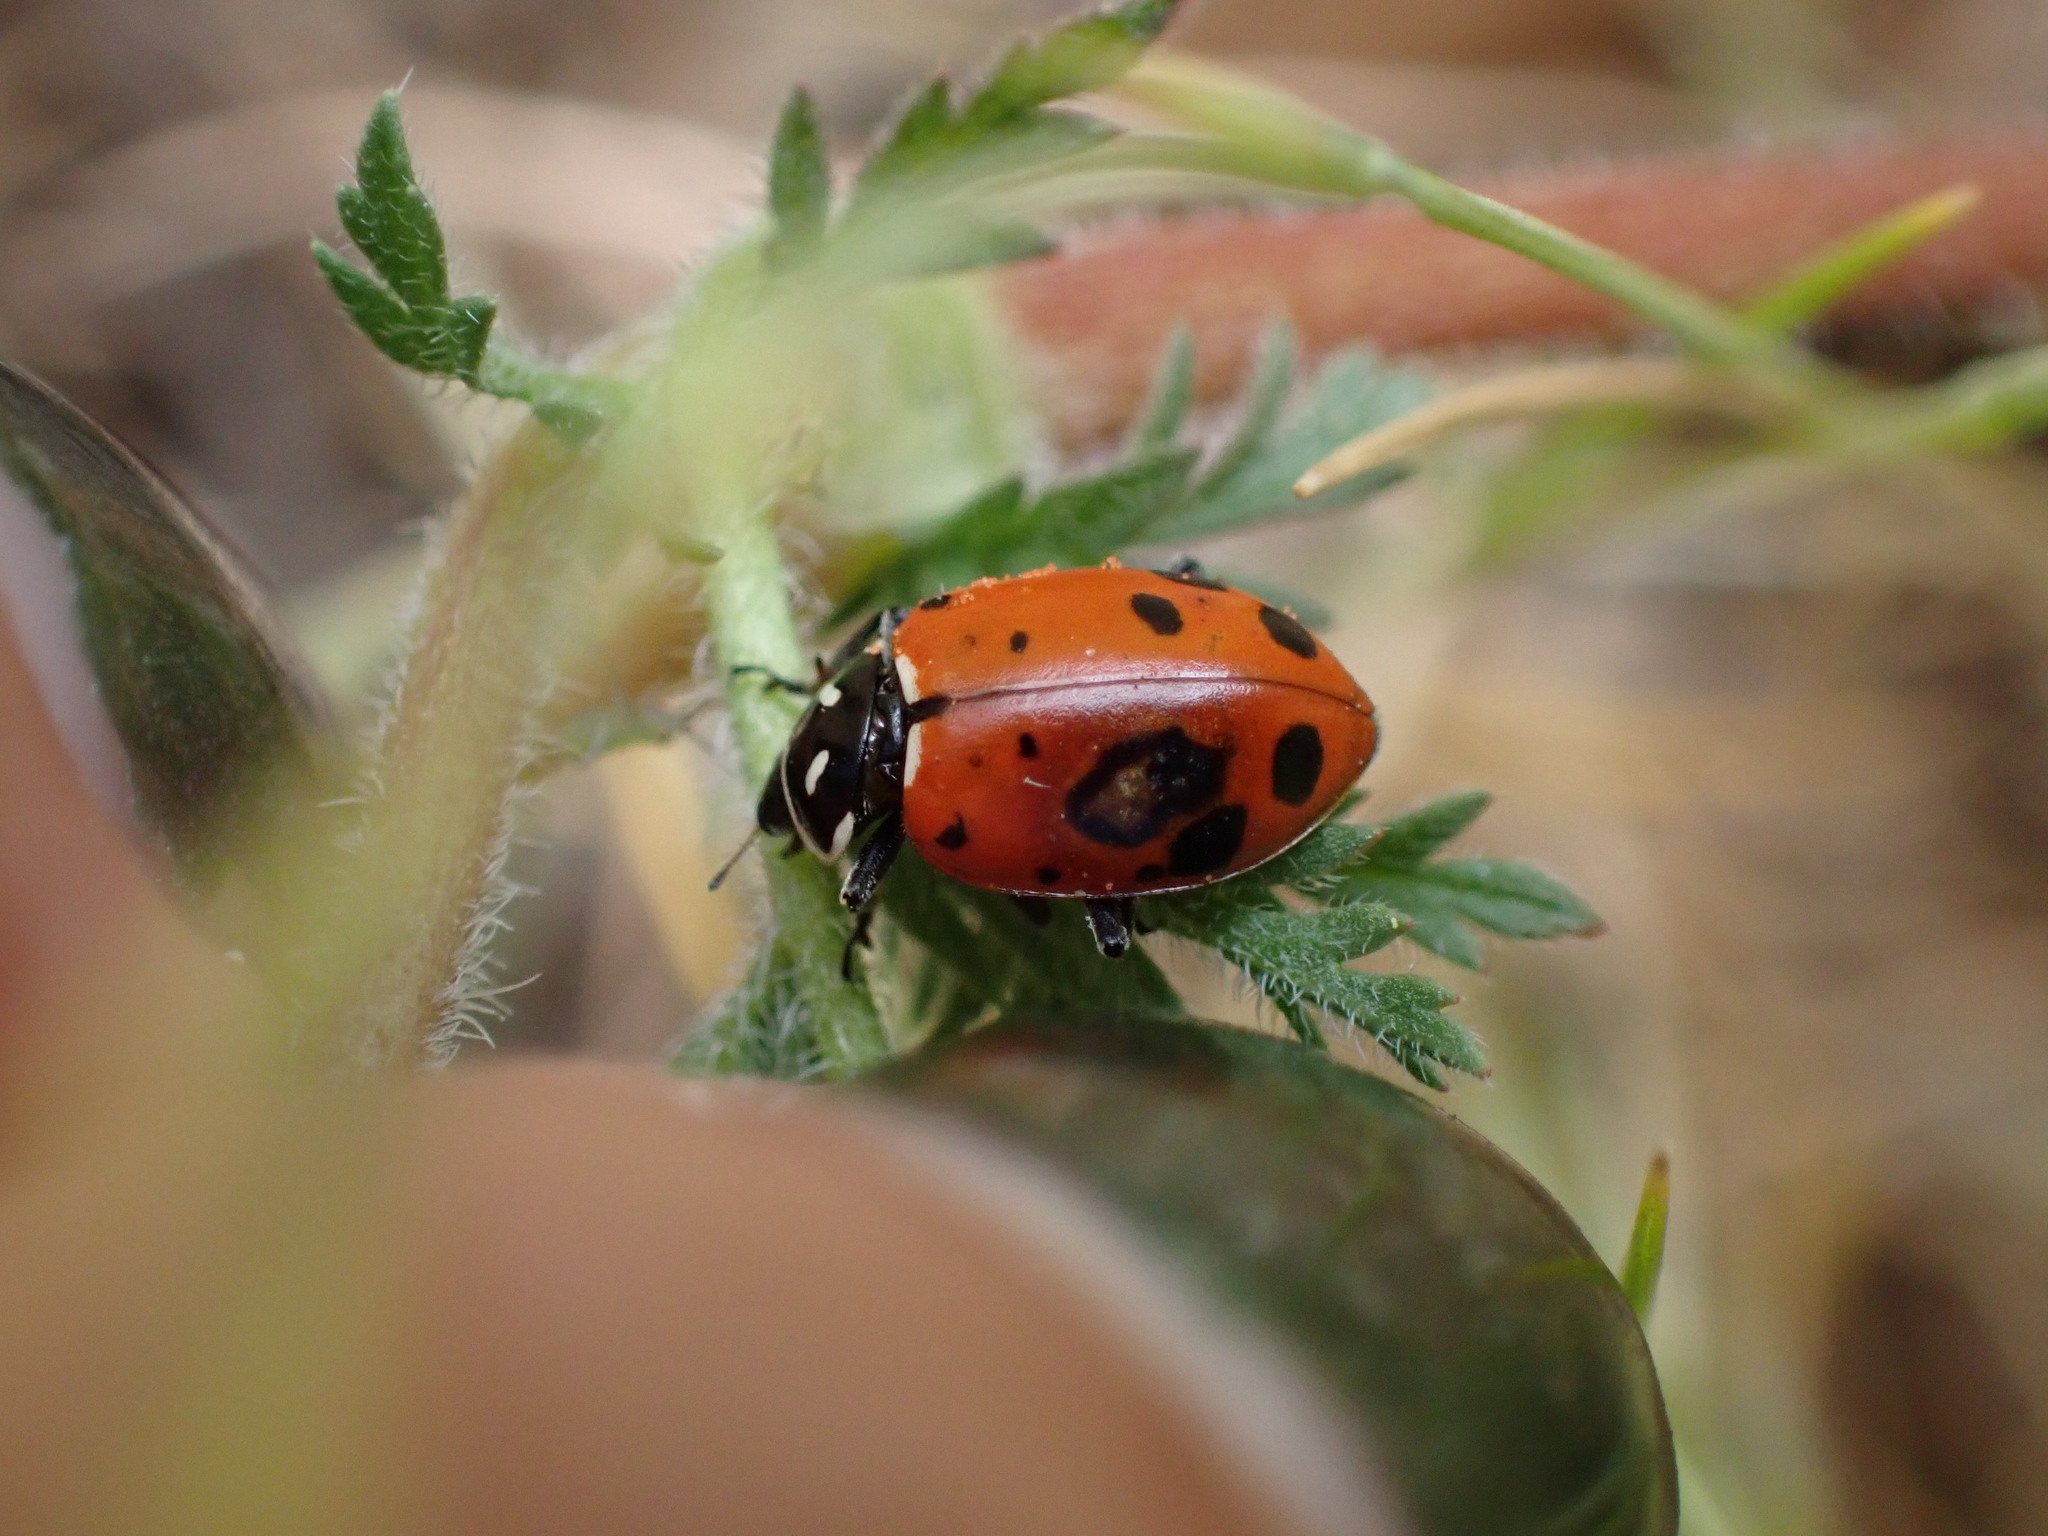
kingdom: Animalia
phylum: Arthropoda
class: Insecta
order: Coleoptera
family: Coccinellidae
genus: Hippodamia
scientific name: Hippodamia convergens
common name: Convergent lady beetle
